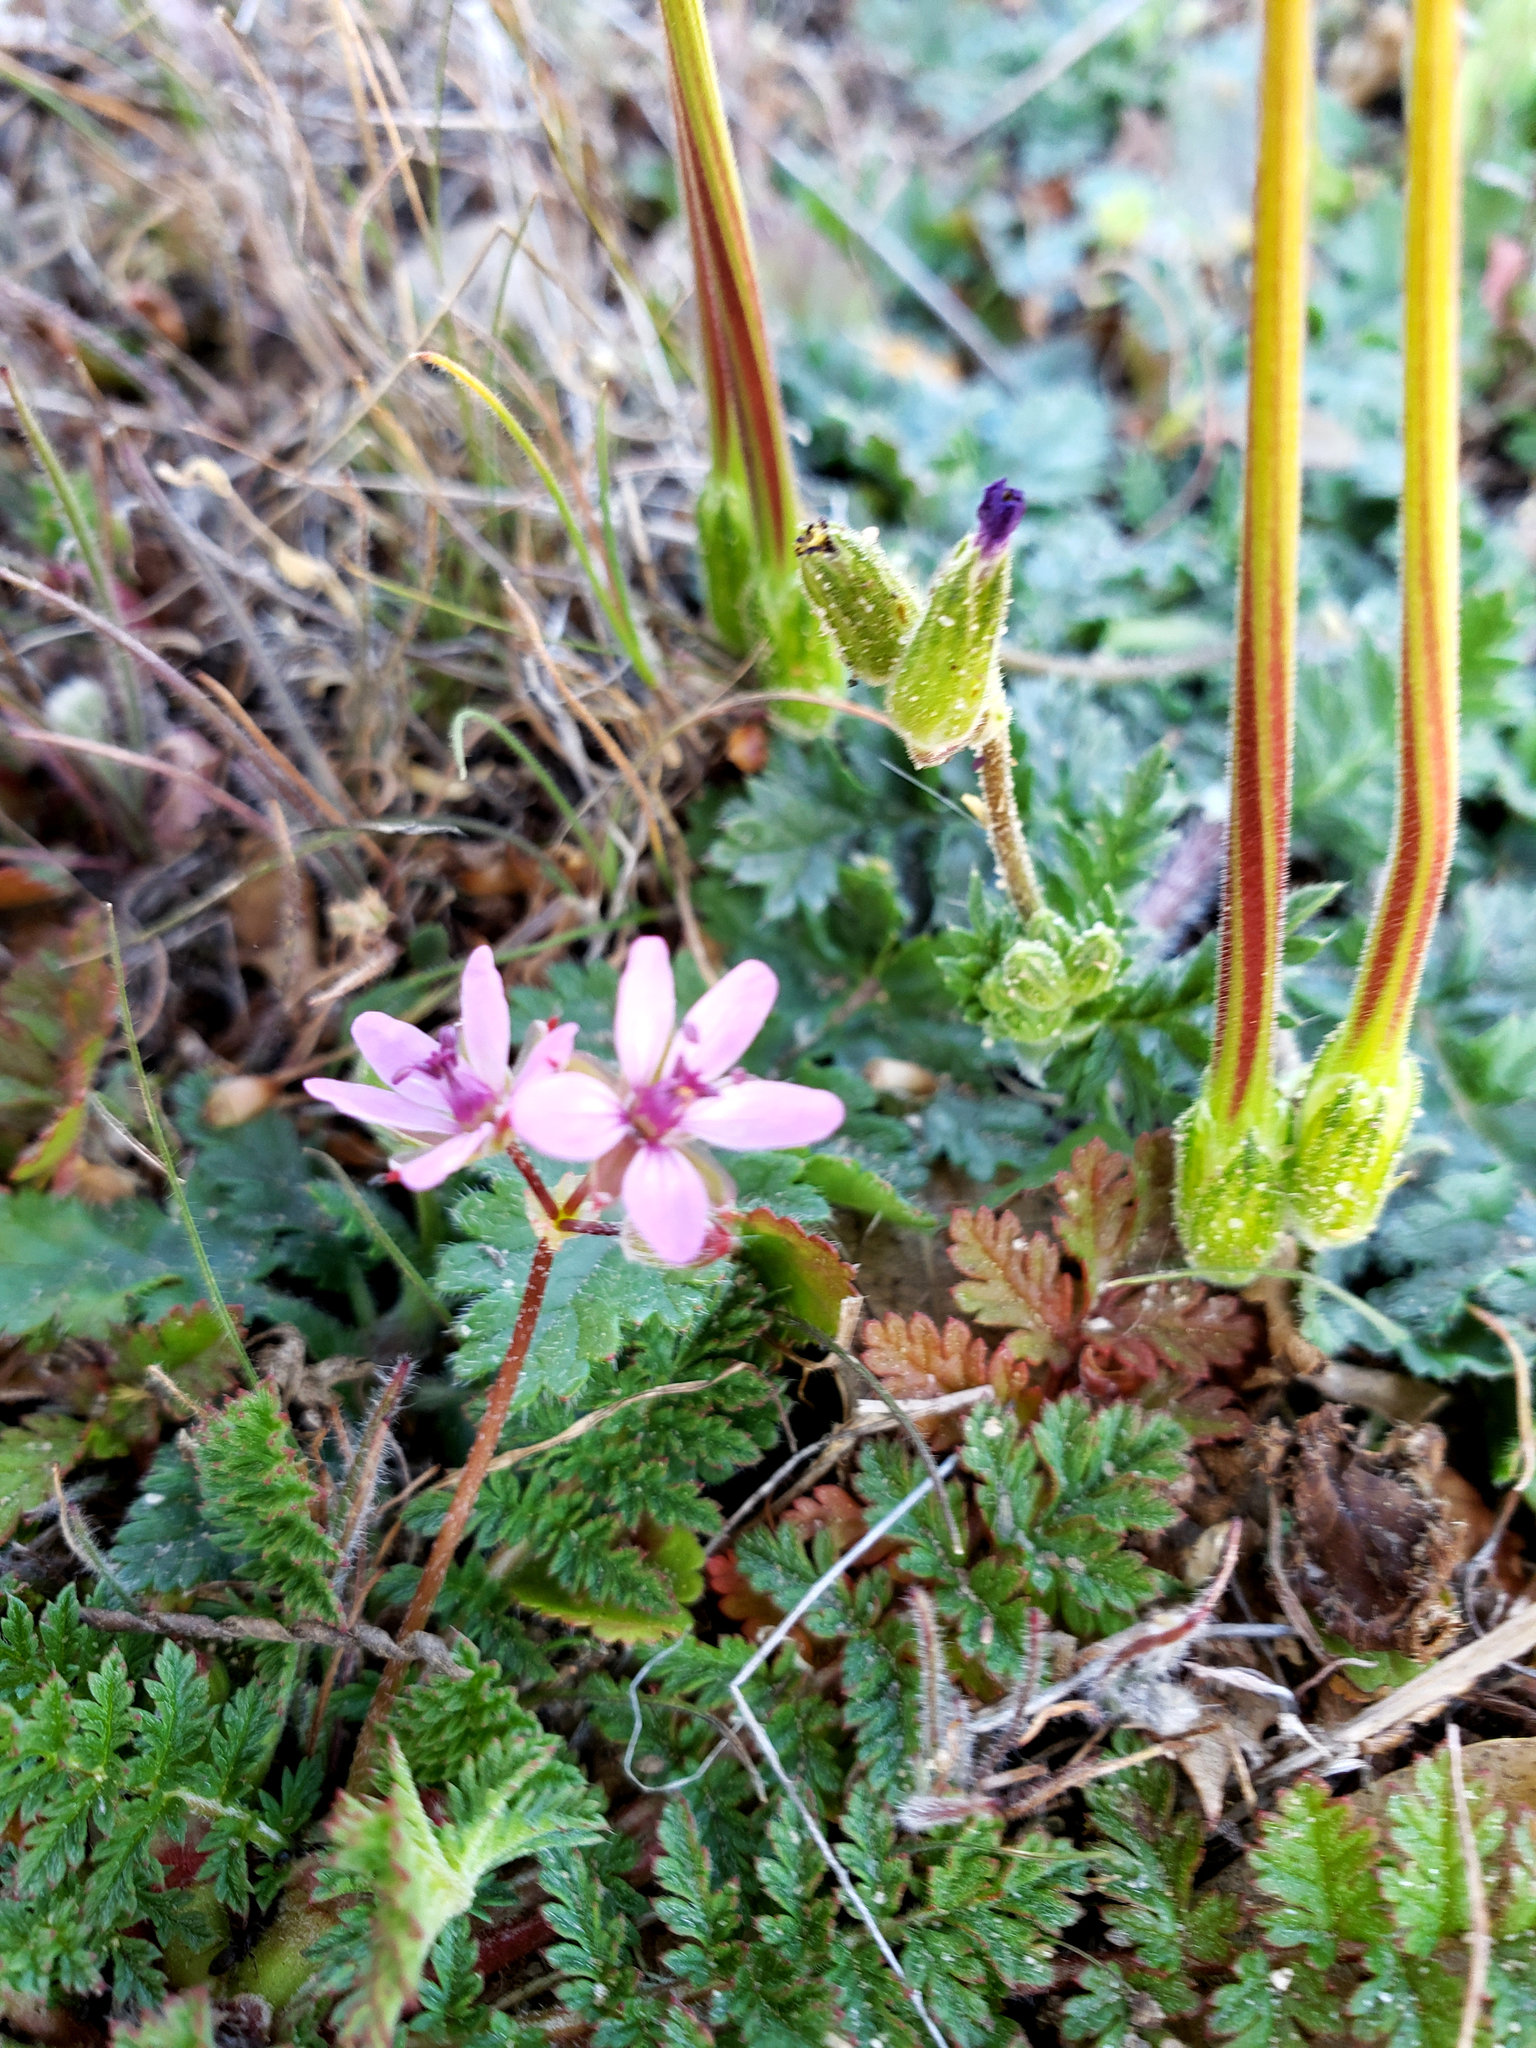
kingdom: Plantae
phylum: Tracheophyta
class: Magnoliopsida
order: Geraniales
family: Geraniaceae
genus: Erodium
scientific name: Erodium cicutarium
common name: Common stork's-bill
